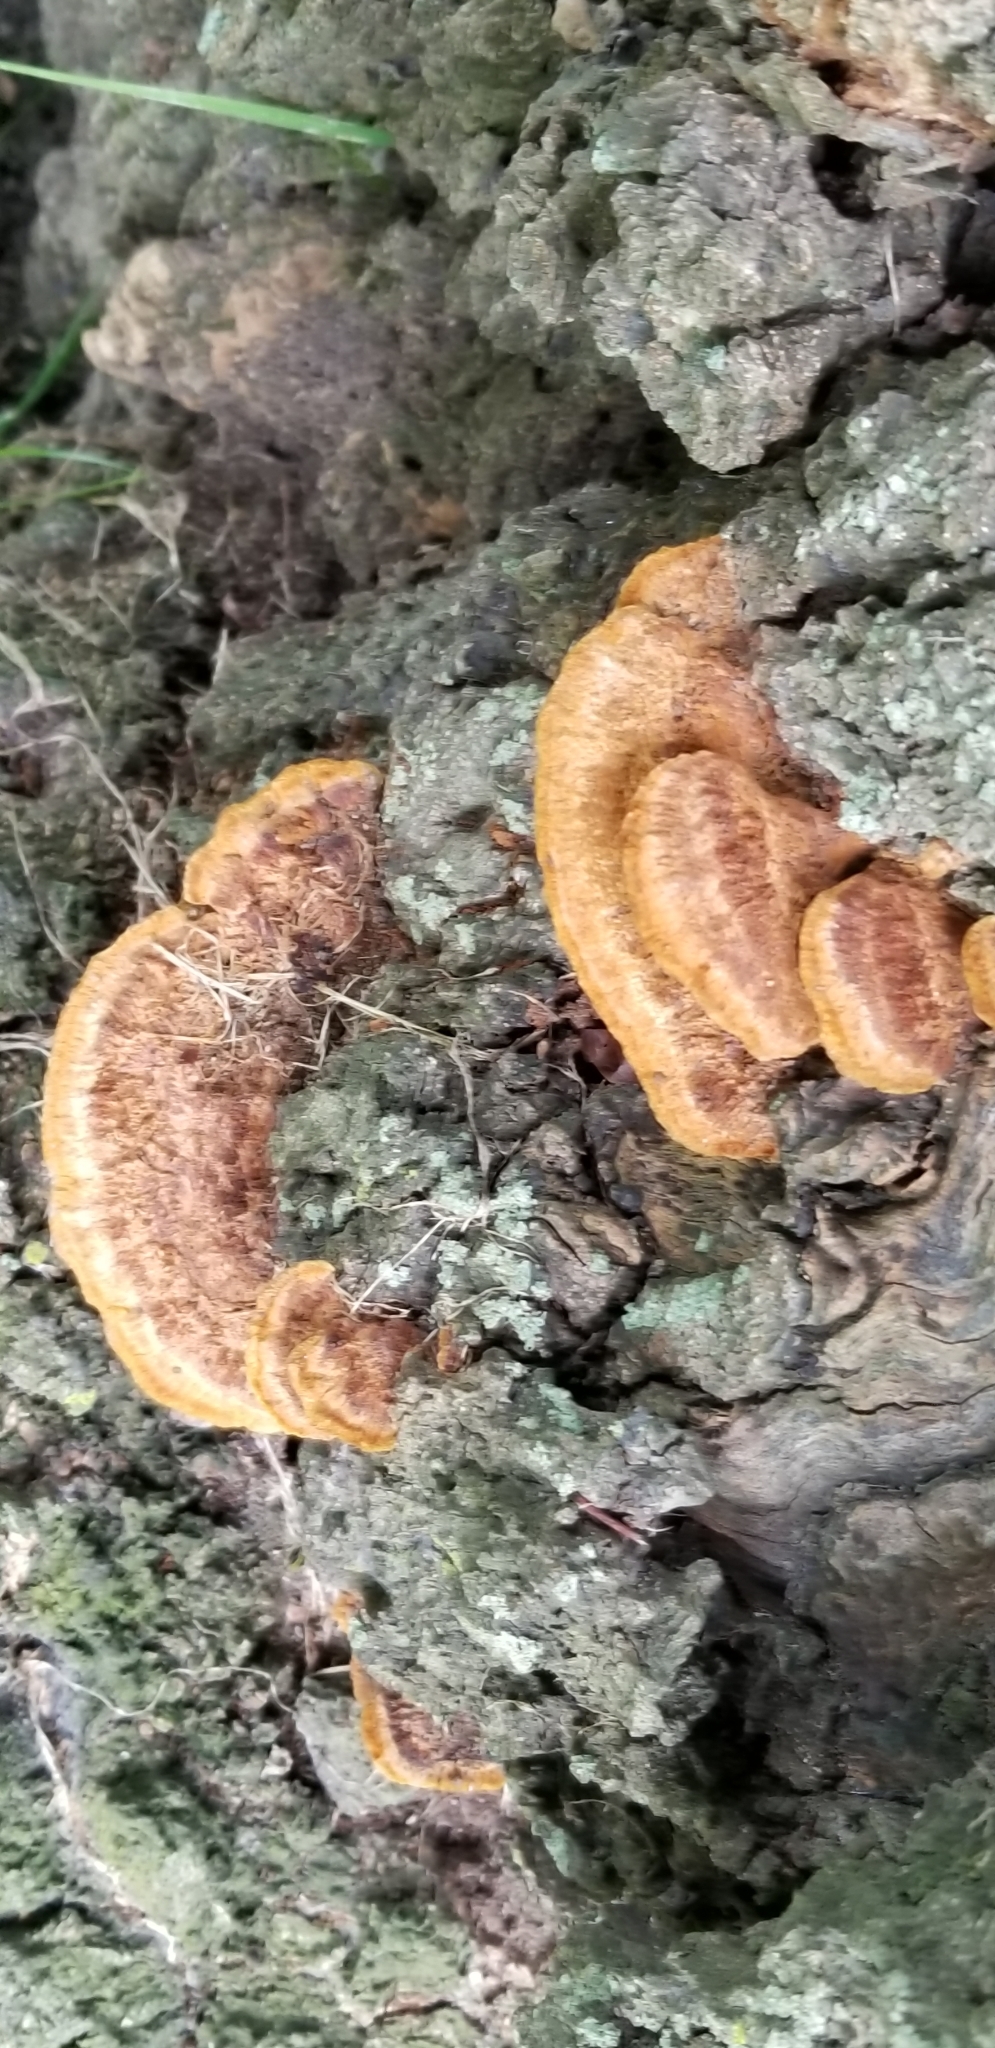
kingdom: Fungi
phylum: Basidiomycota
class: Agaricomycetes
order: Hymenochaetales
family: Hymenochaetaceae
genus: Phellinus
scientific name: Phellinus gilvus
